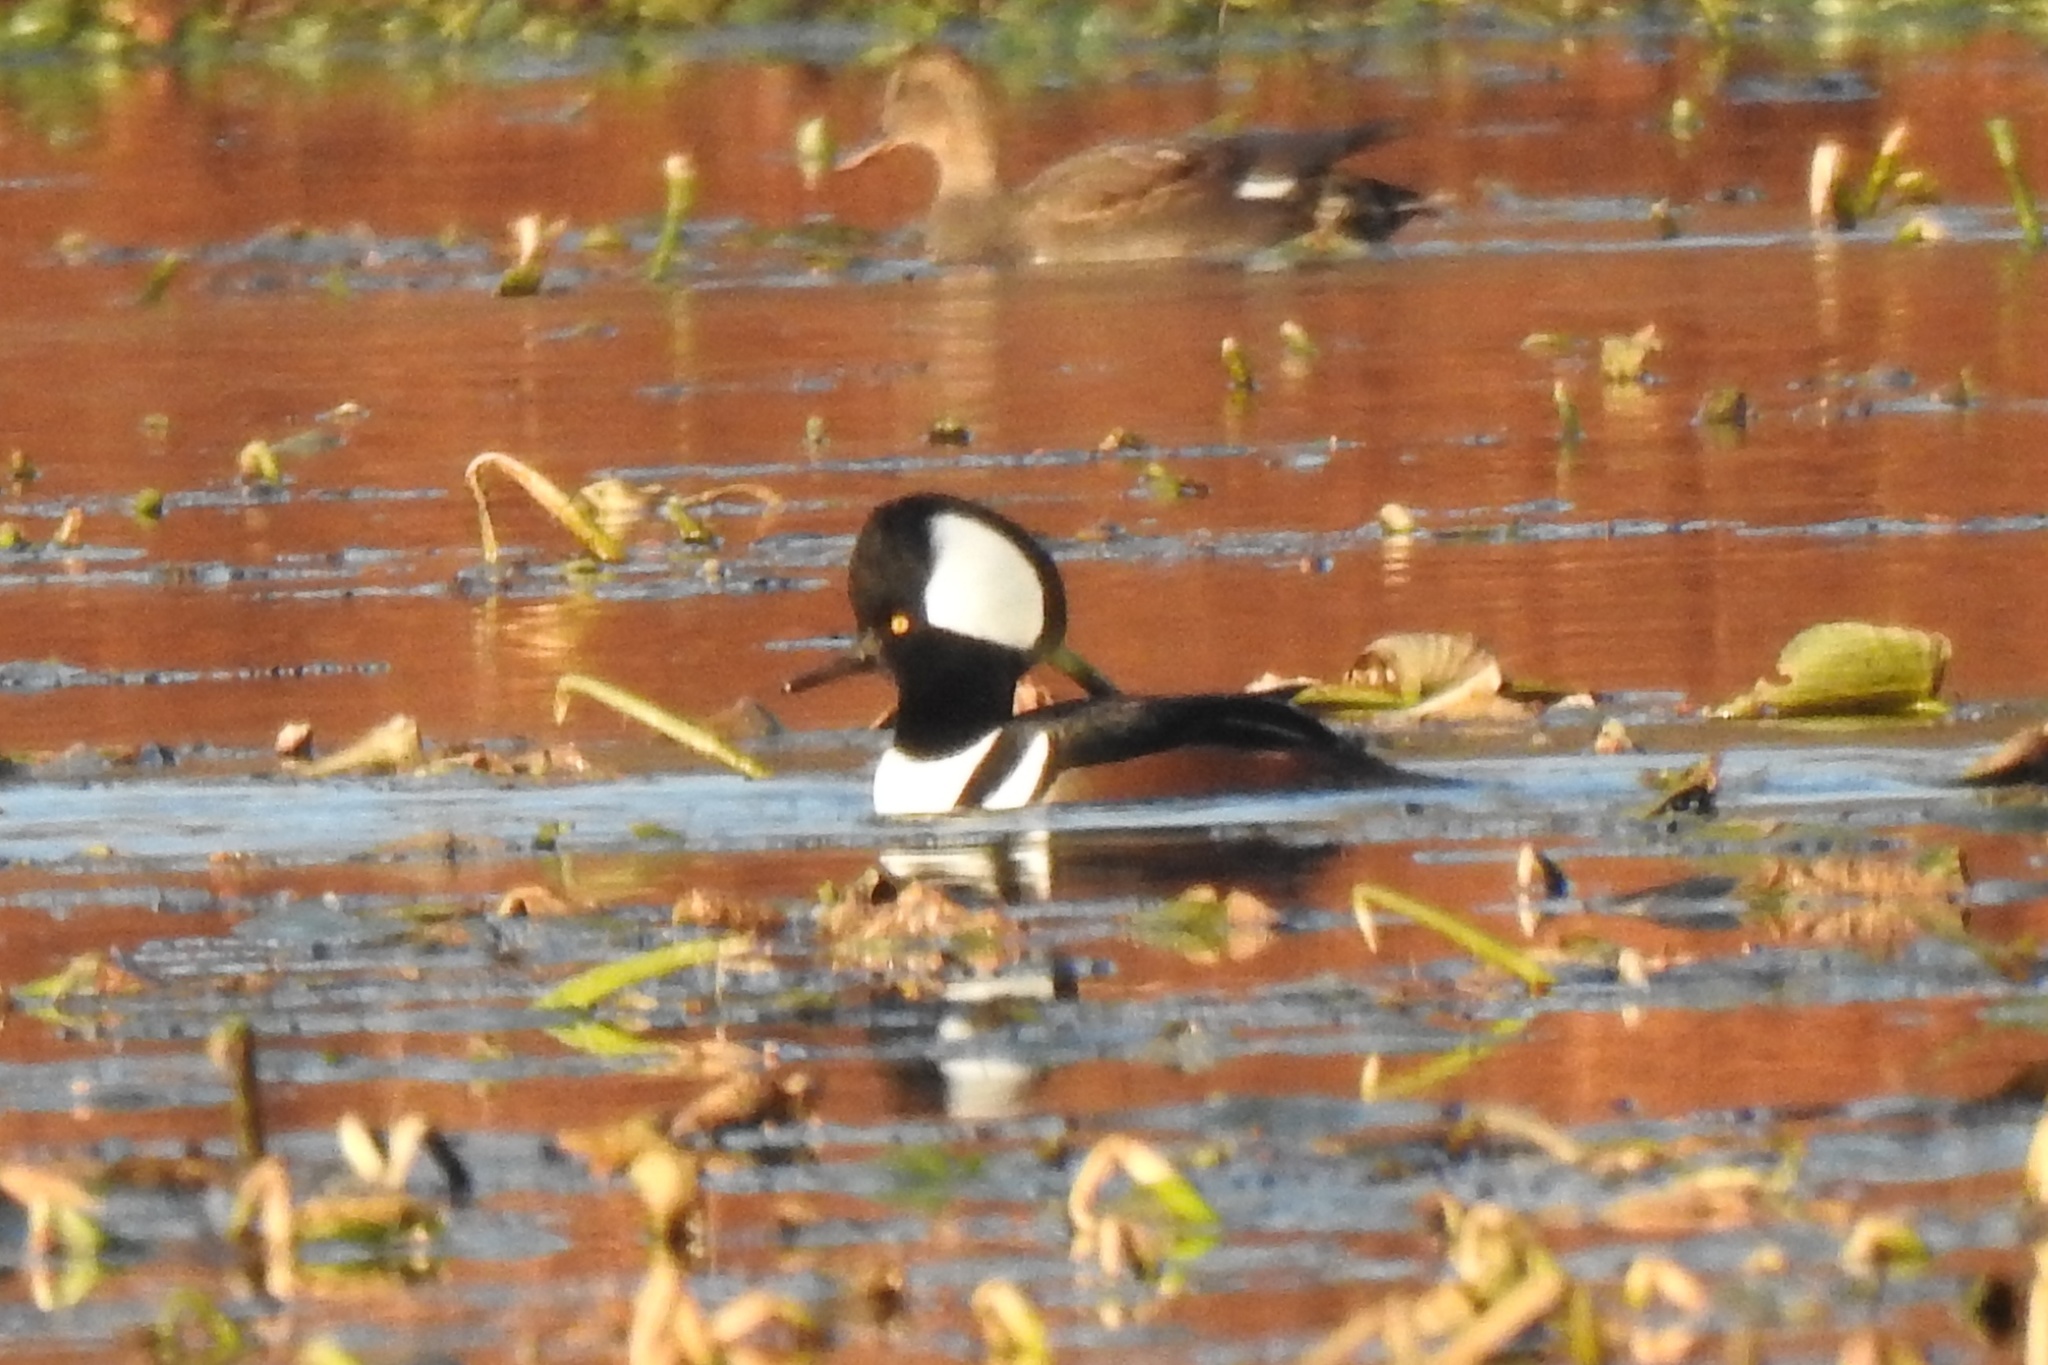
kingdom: Animalia
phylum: Chordata
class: Aves
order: Anseriformes
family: Anatidae
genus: Lophodytes
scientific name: Lophodytes cucullatus
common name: Hooded merganser
